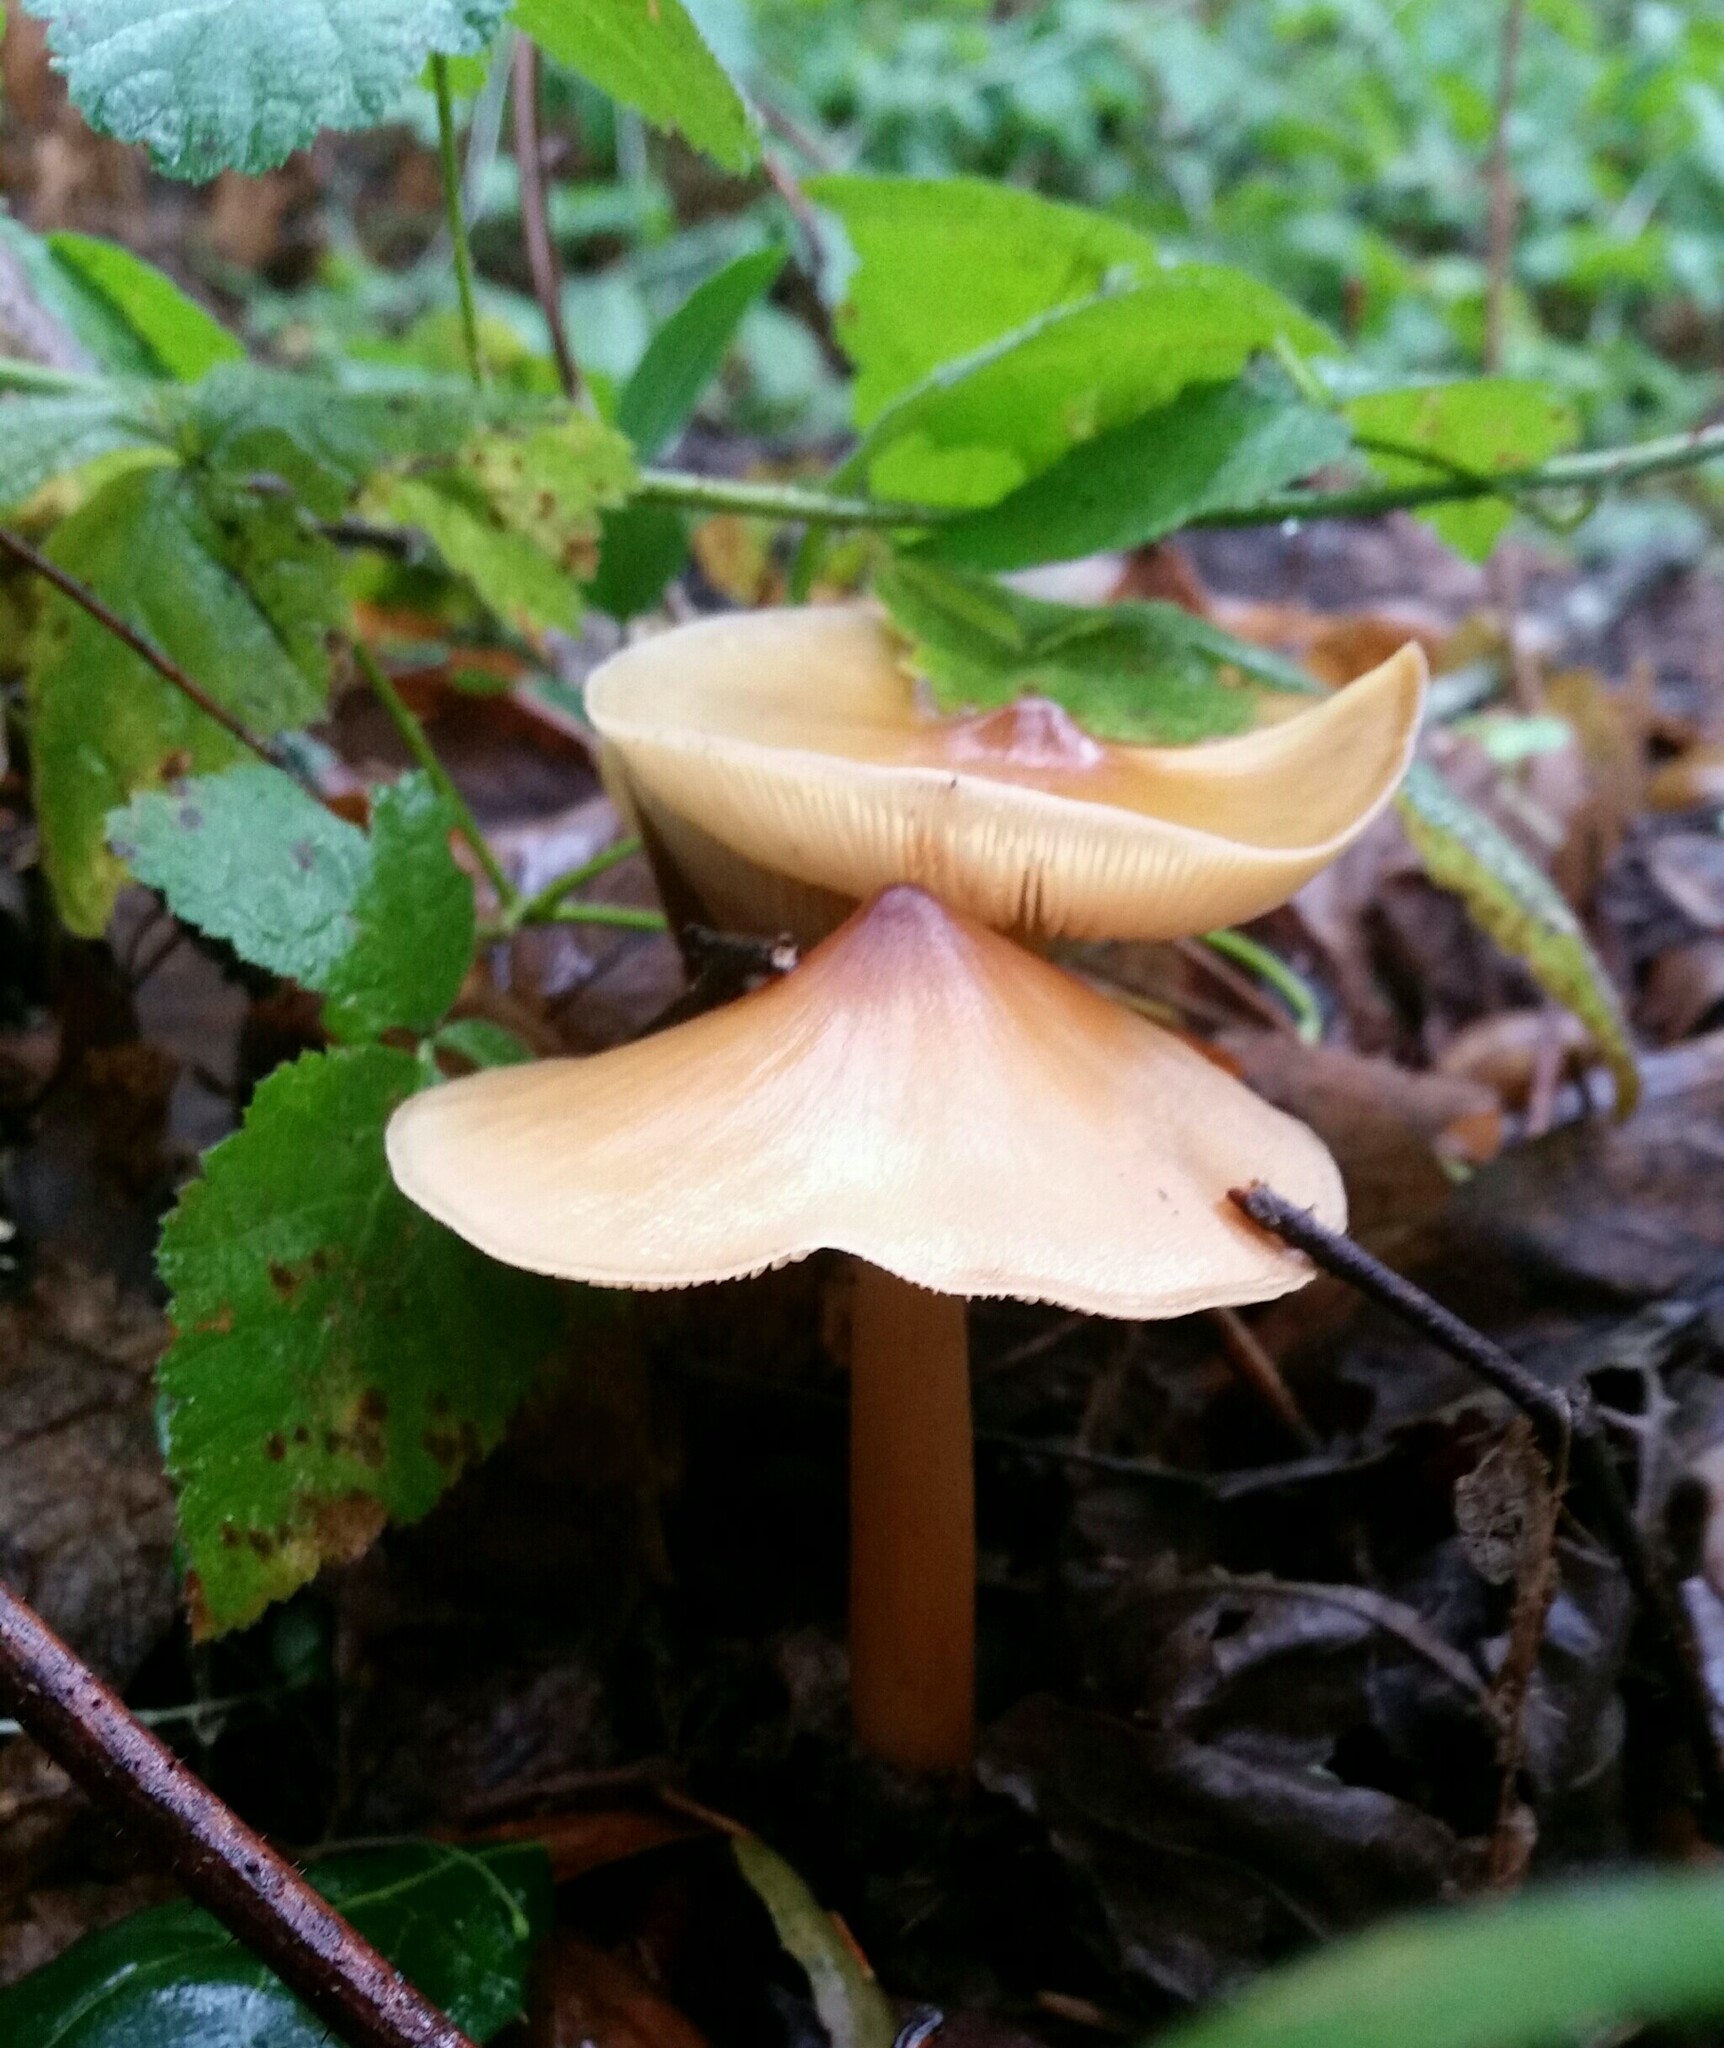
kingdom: Fungi
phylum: Basidiomycota
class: Agaricomycetes
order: Agaricales
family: Omphalotaceae
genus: Gymnopus
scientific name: Gymnopus dryophilus
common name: Penny top
